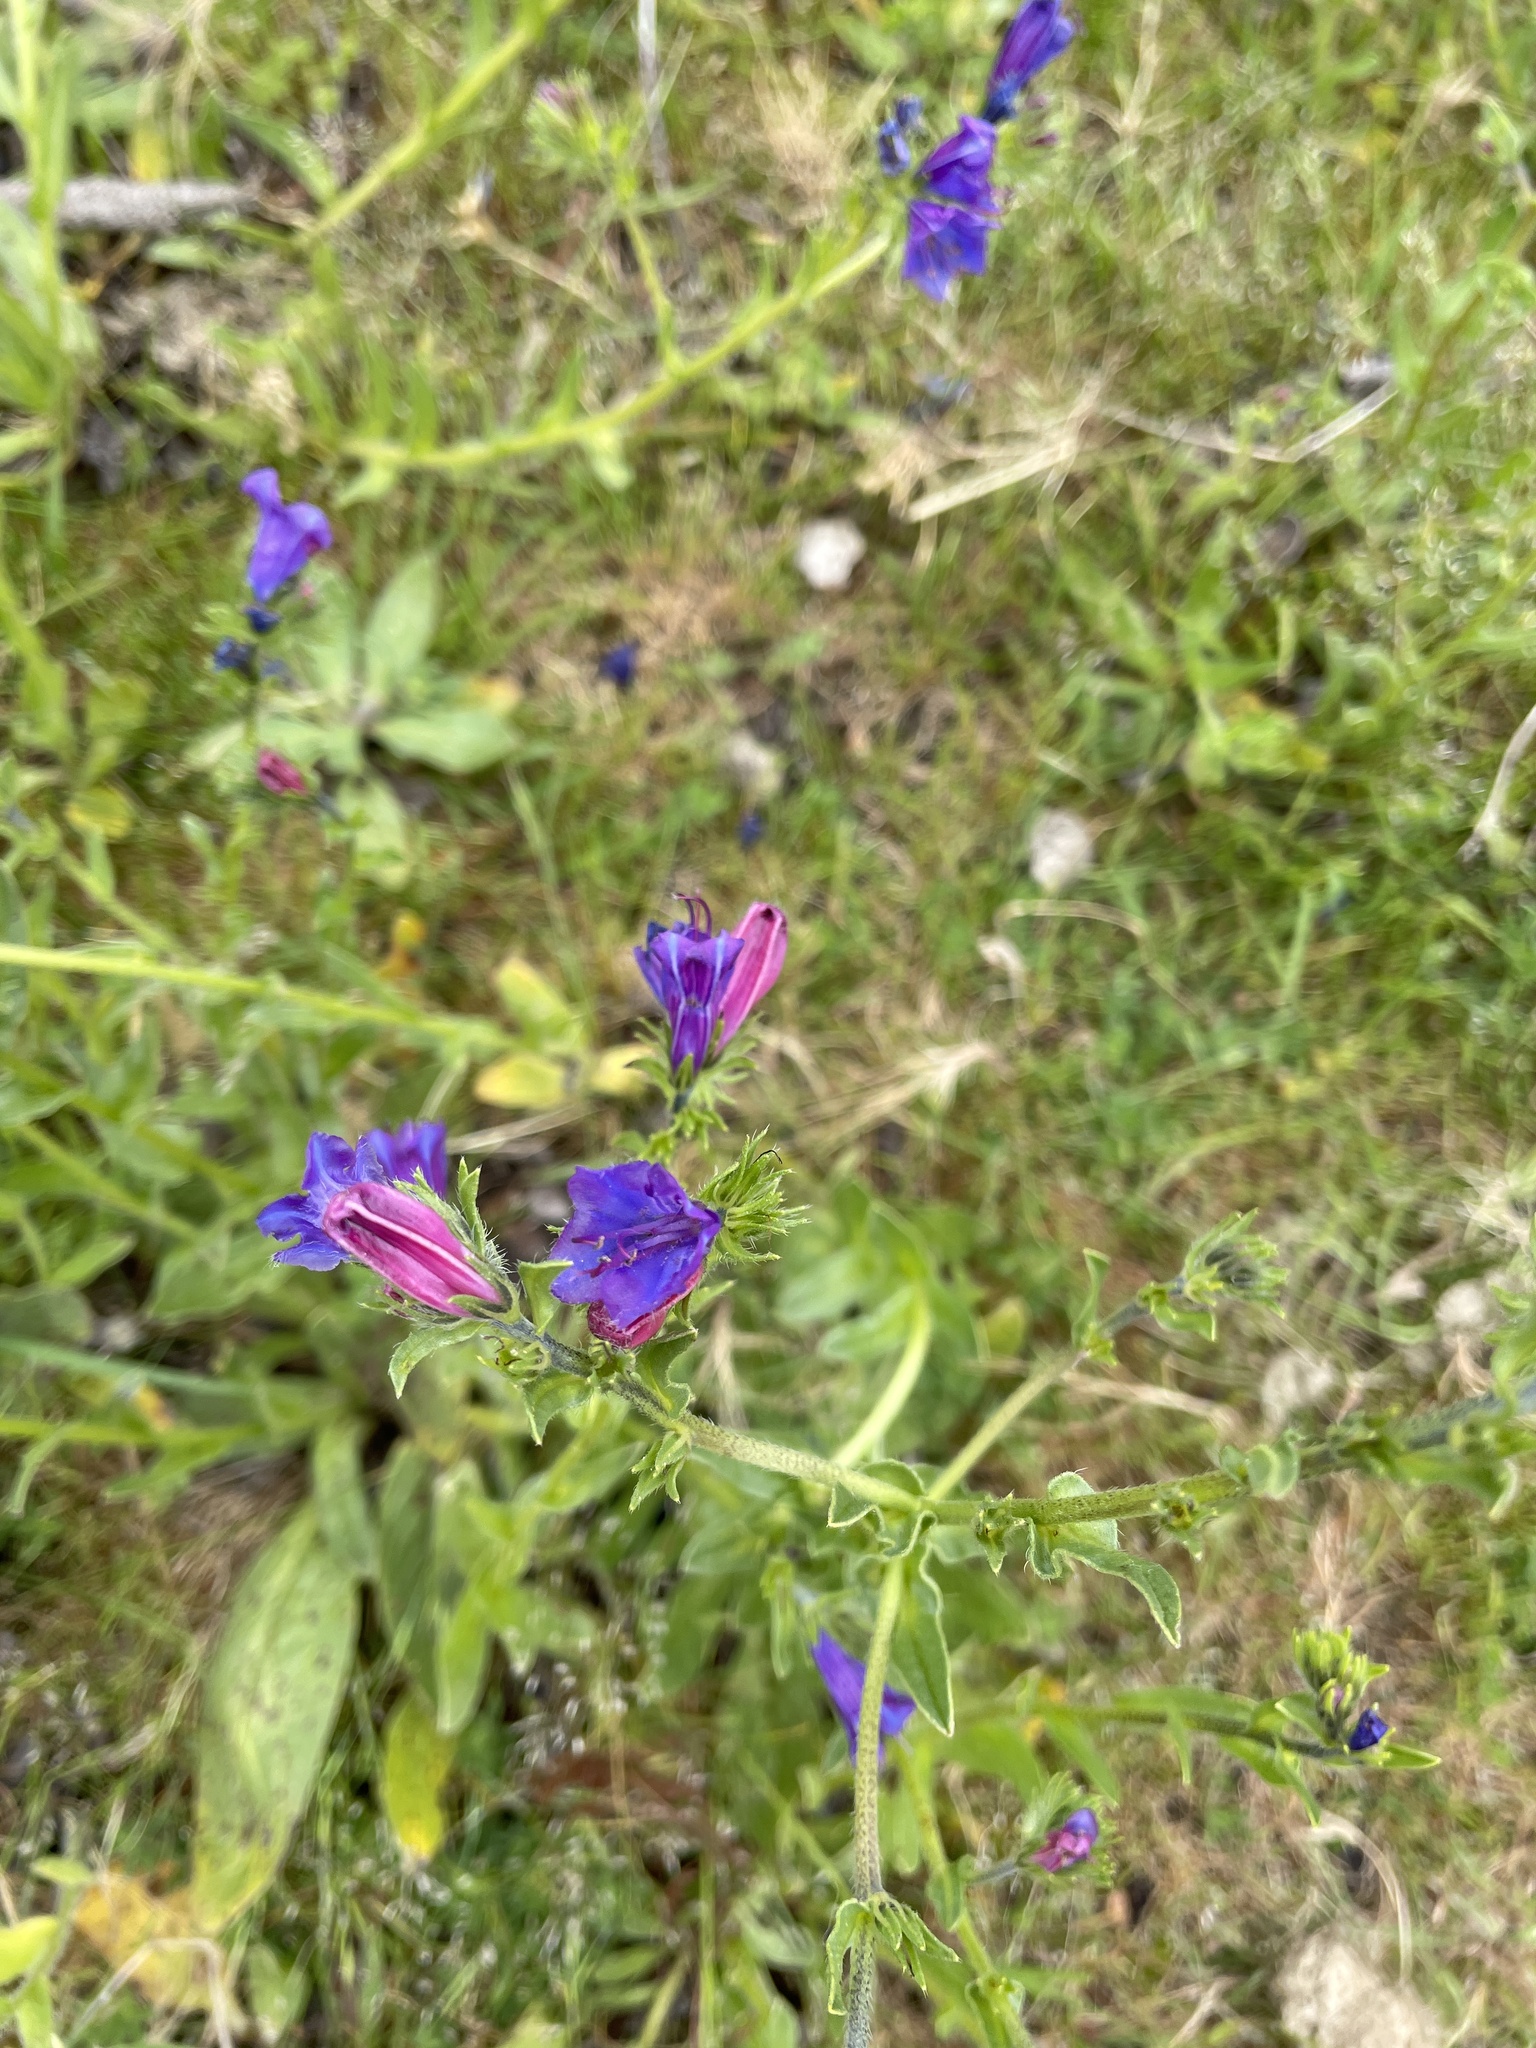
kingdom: Plantae
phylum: Tracheophyta
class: Magnoliopsida
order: Boraginales
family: Boraginaceae
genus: Echium
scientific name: Echium plantagineum
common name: Purple viper's-bugloss
